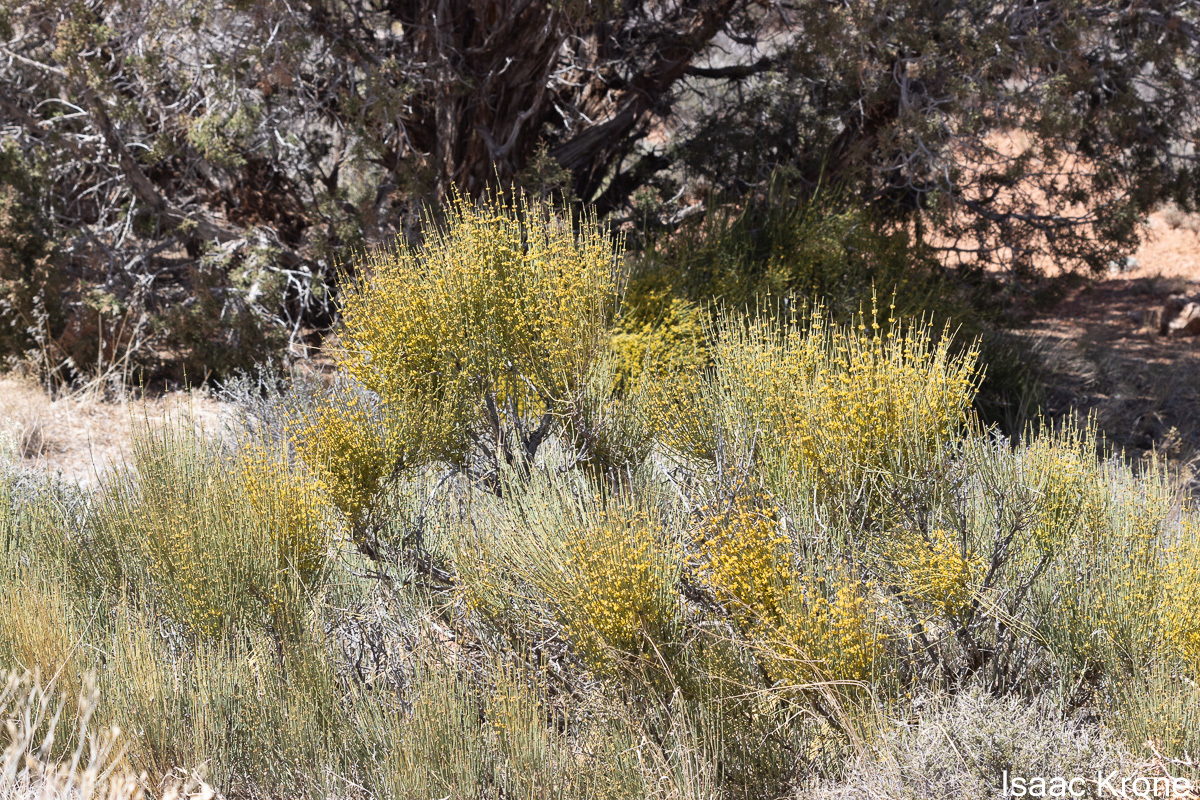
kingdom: Plantae
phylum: Tracheophyta
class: Gnetopsida
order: Ephedrales
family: Ephedraceae
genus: Ephedra
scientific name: Ephedra viridis
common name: Green ephedra
